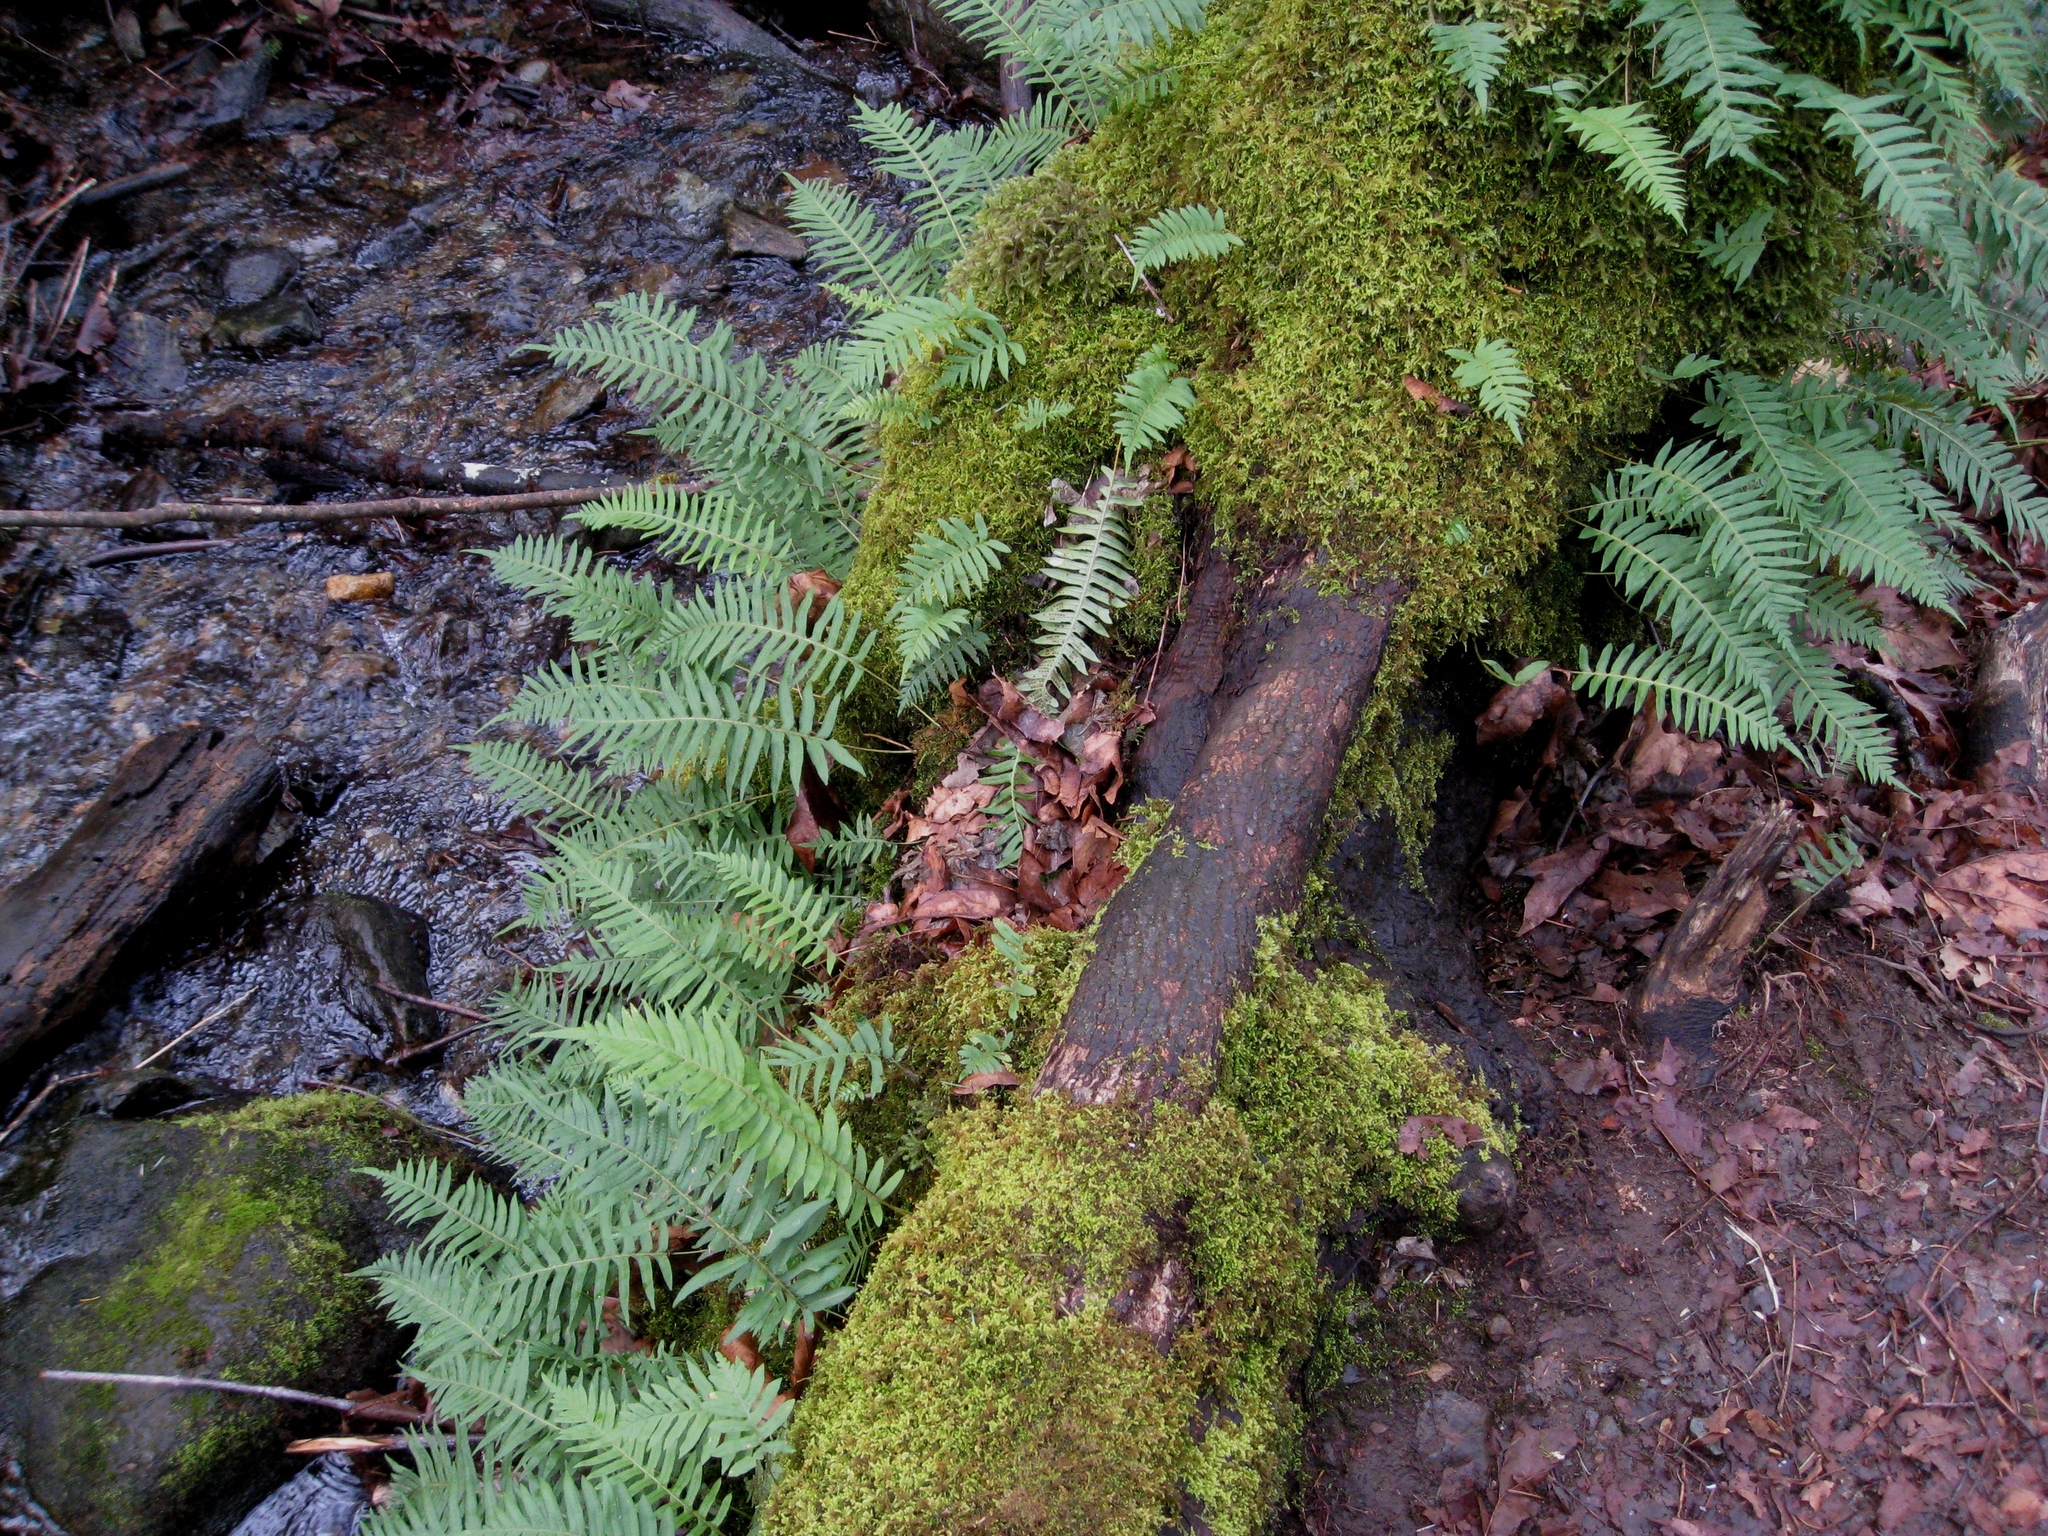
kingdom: Plantae
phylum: Tracheophyta
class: Polypodiopsida
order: Polypodiales
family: Polypodiaceae
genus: Polypodium
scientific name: Polypodium glycyrrhiza
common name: Licorice fern
